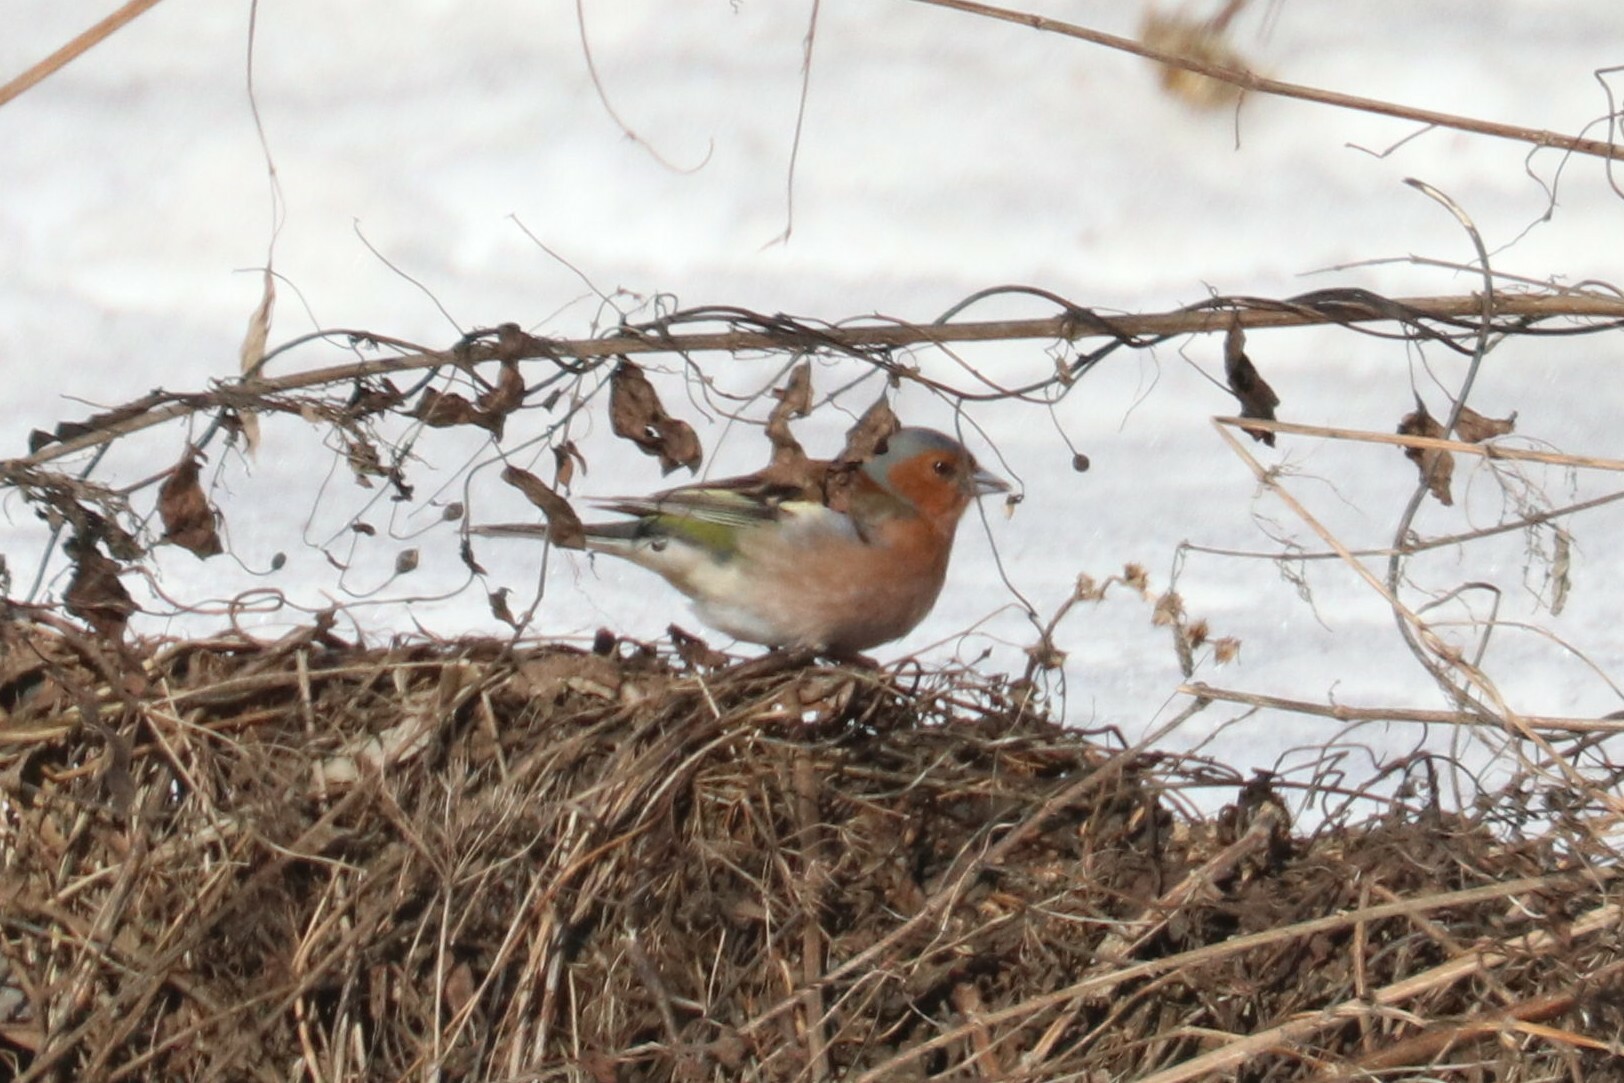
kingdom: Animalia
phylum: Chordata
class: Aves
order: Passeriformes
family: Fringillidae
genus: Fringilla
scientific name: Fringilla coelebs
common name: Common chaffinch
